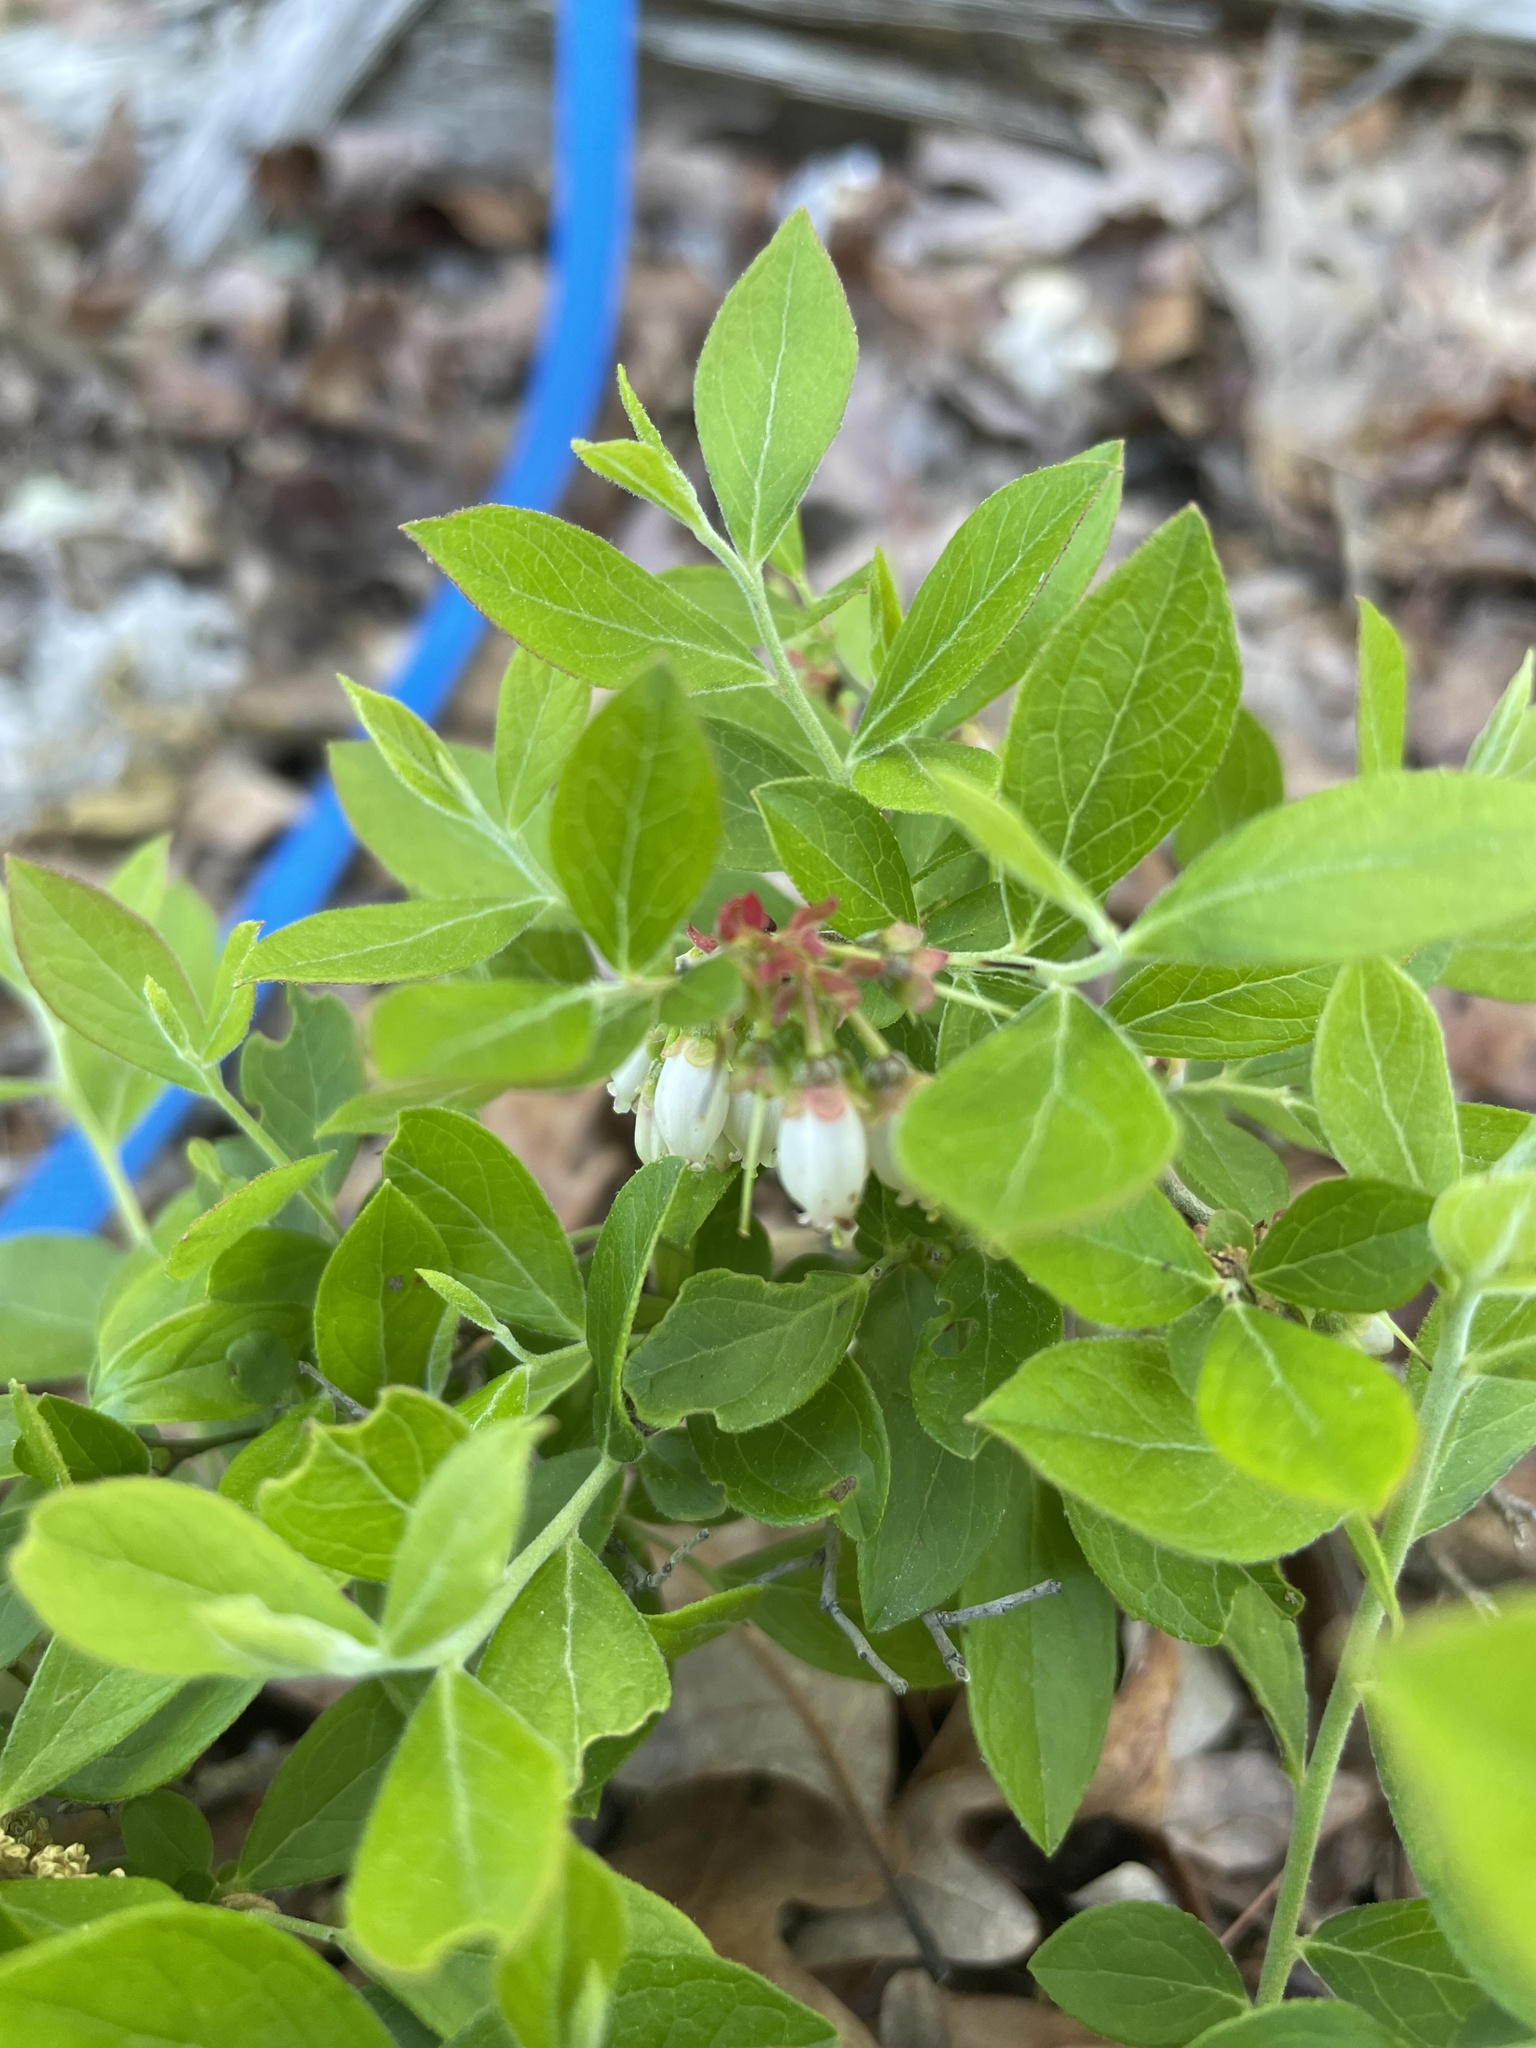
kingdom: Plantae
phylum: Tracheophyta
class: Magnoliopsida
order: Ericales
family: Ericaceae
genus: Vaccinium
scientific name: Vaccinium tenellum
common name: Southern blueberry
